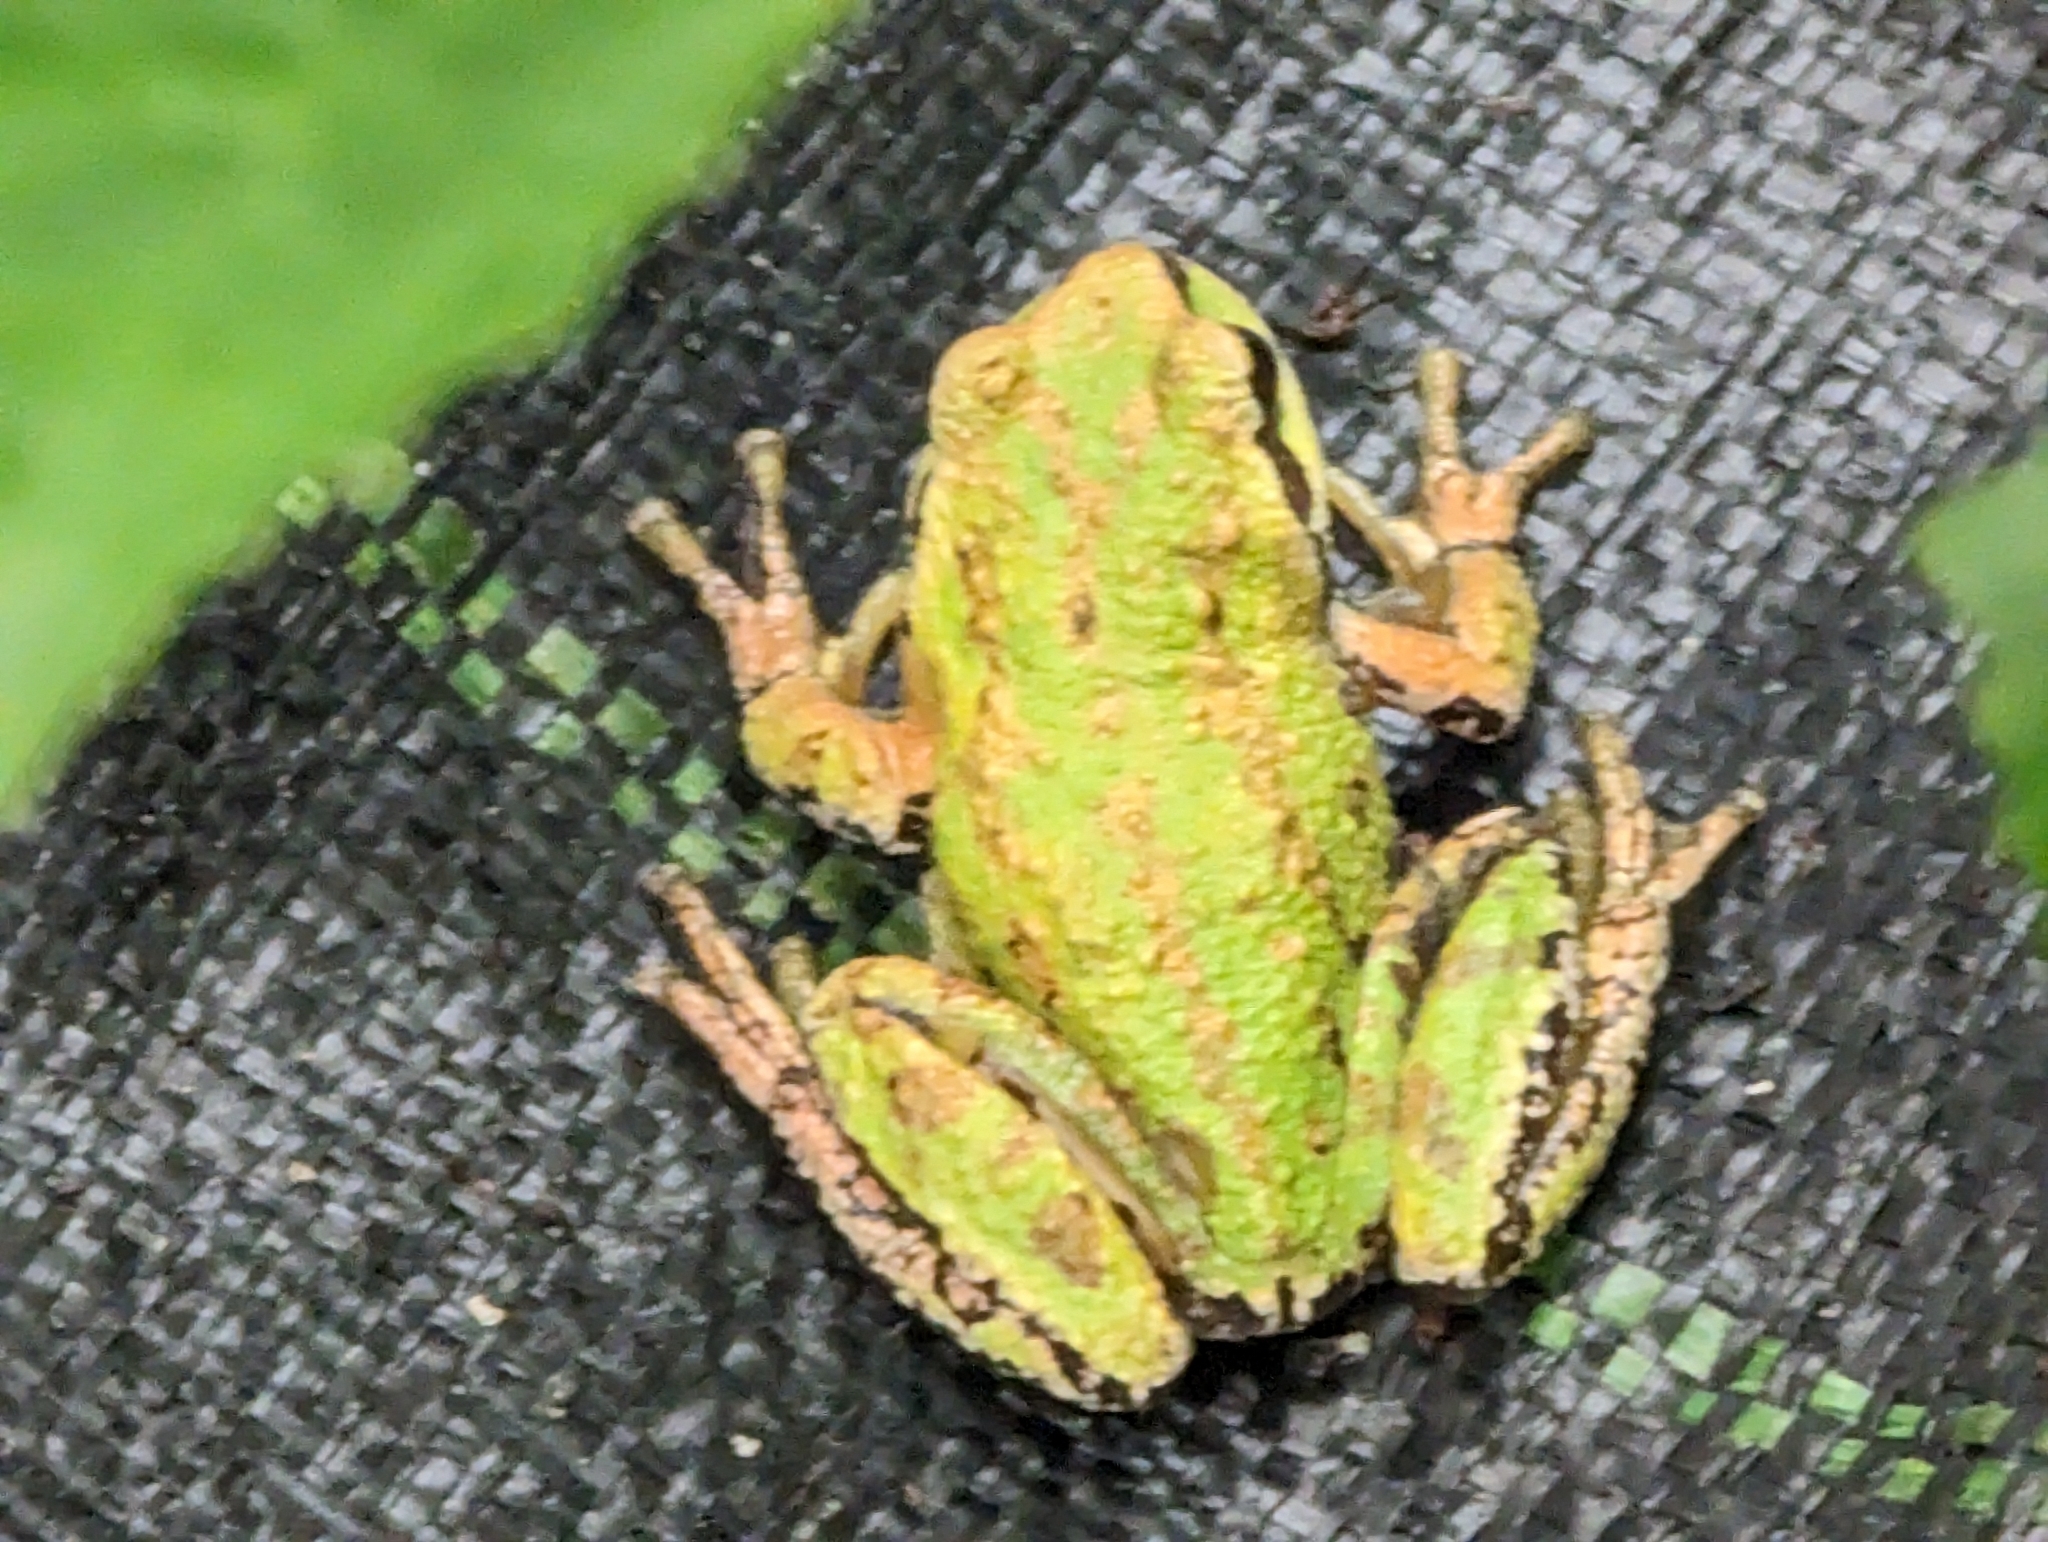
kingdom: Animalia
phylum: Chordata
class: Amphibia
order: Anura
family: Hylidae
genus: Pseudacris
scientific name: Pseudacris regilla
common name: Pacific chorus frog
